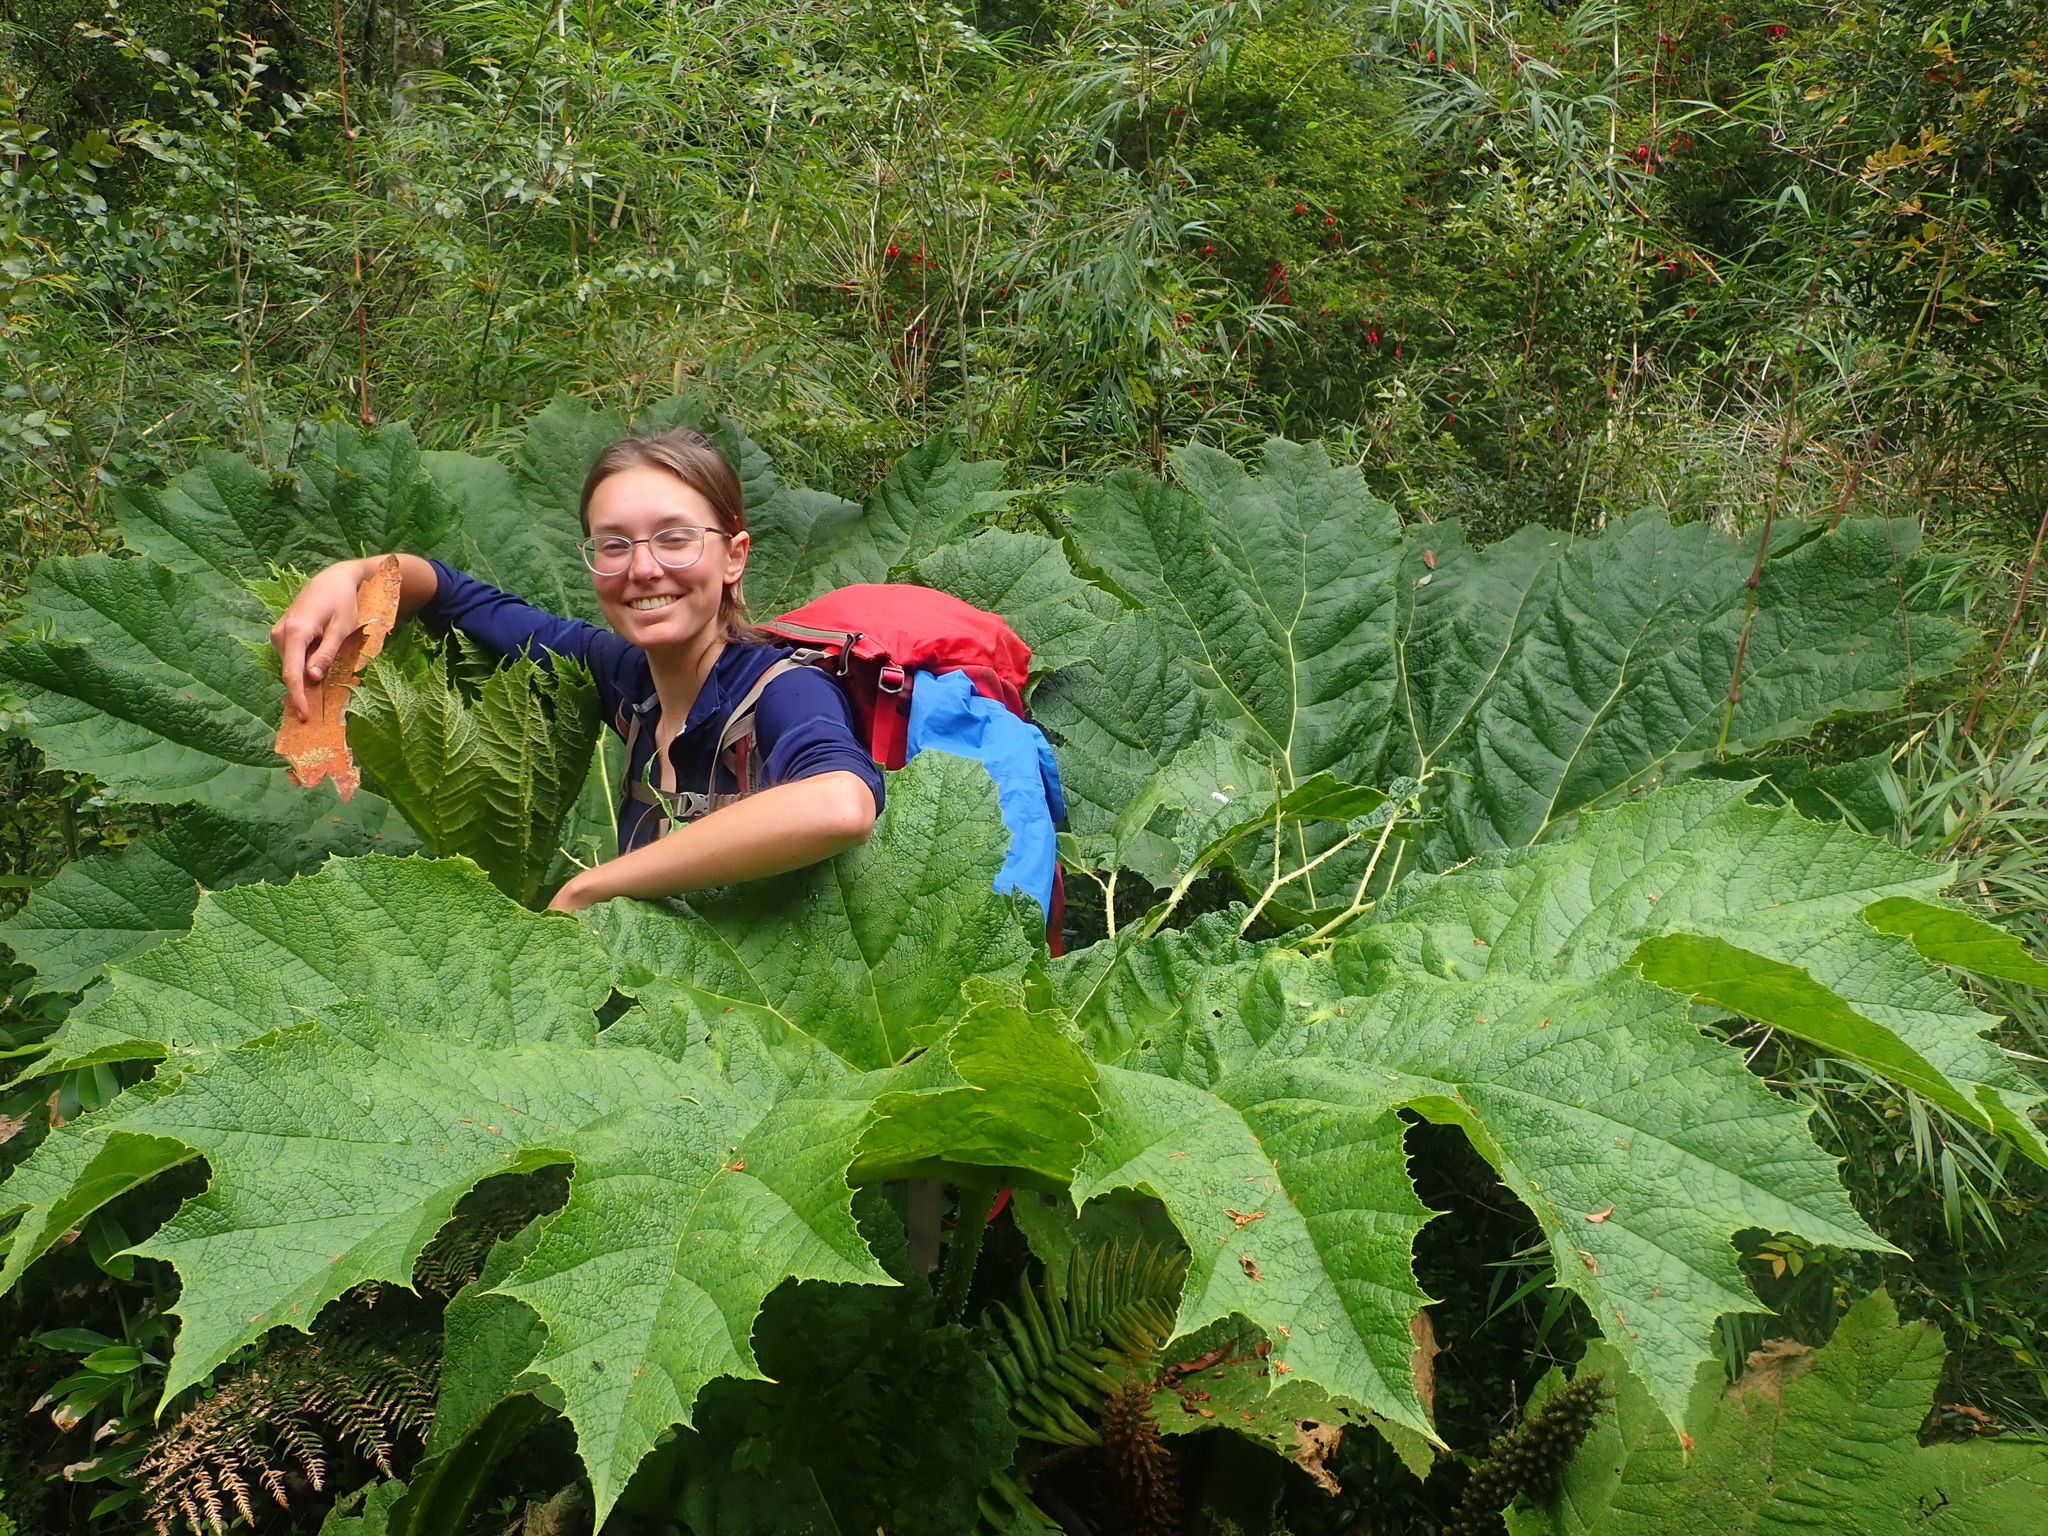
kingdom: Plantae
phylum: Tracheophyta
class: Magnoliopsida
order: Gunnerales
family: Gunneraceae
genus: Gunnera
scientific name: Gunnera tinctoria
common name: Giant-rhubarb
